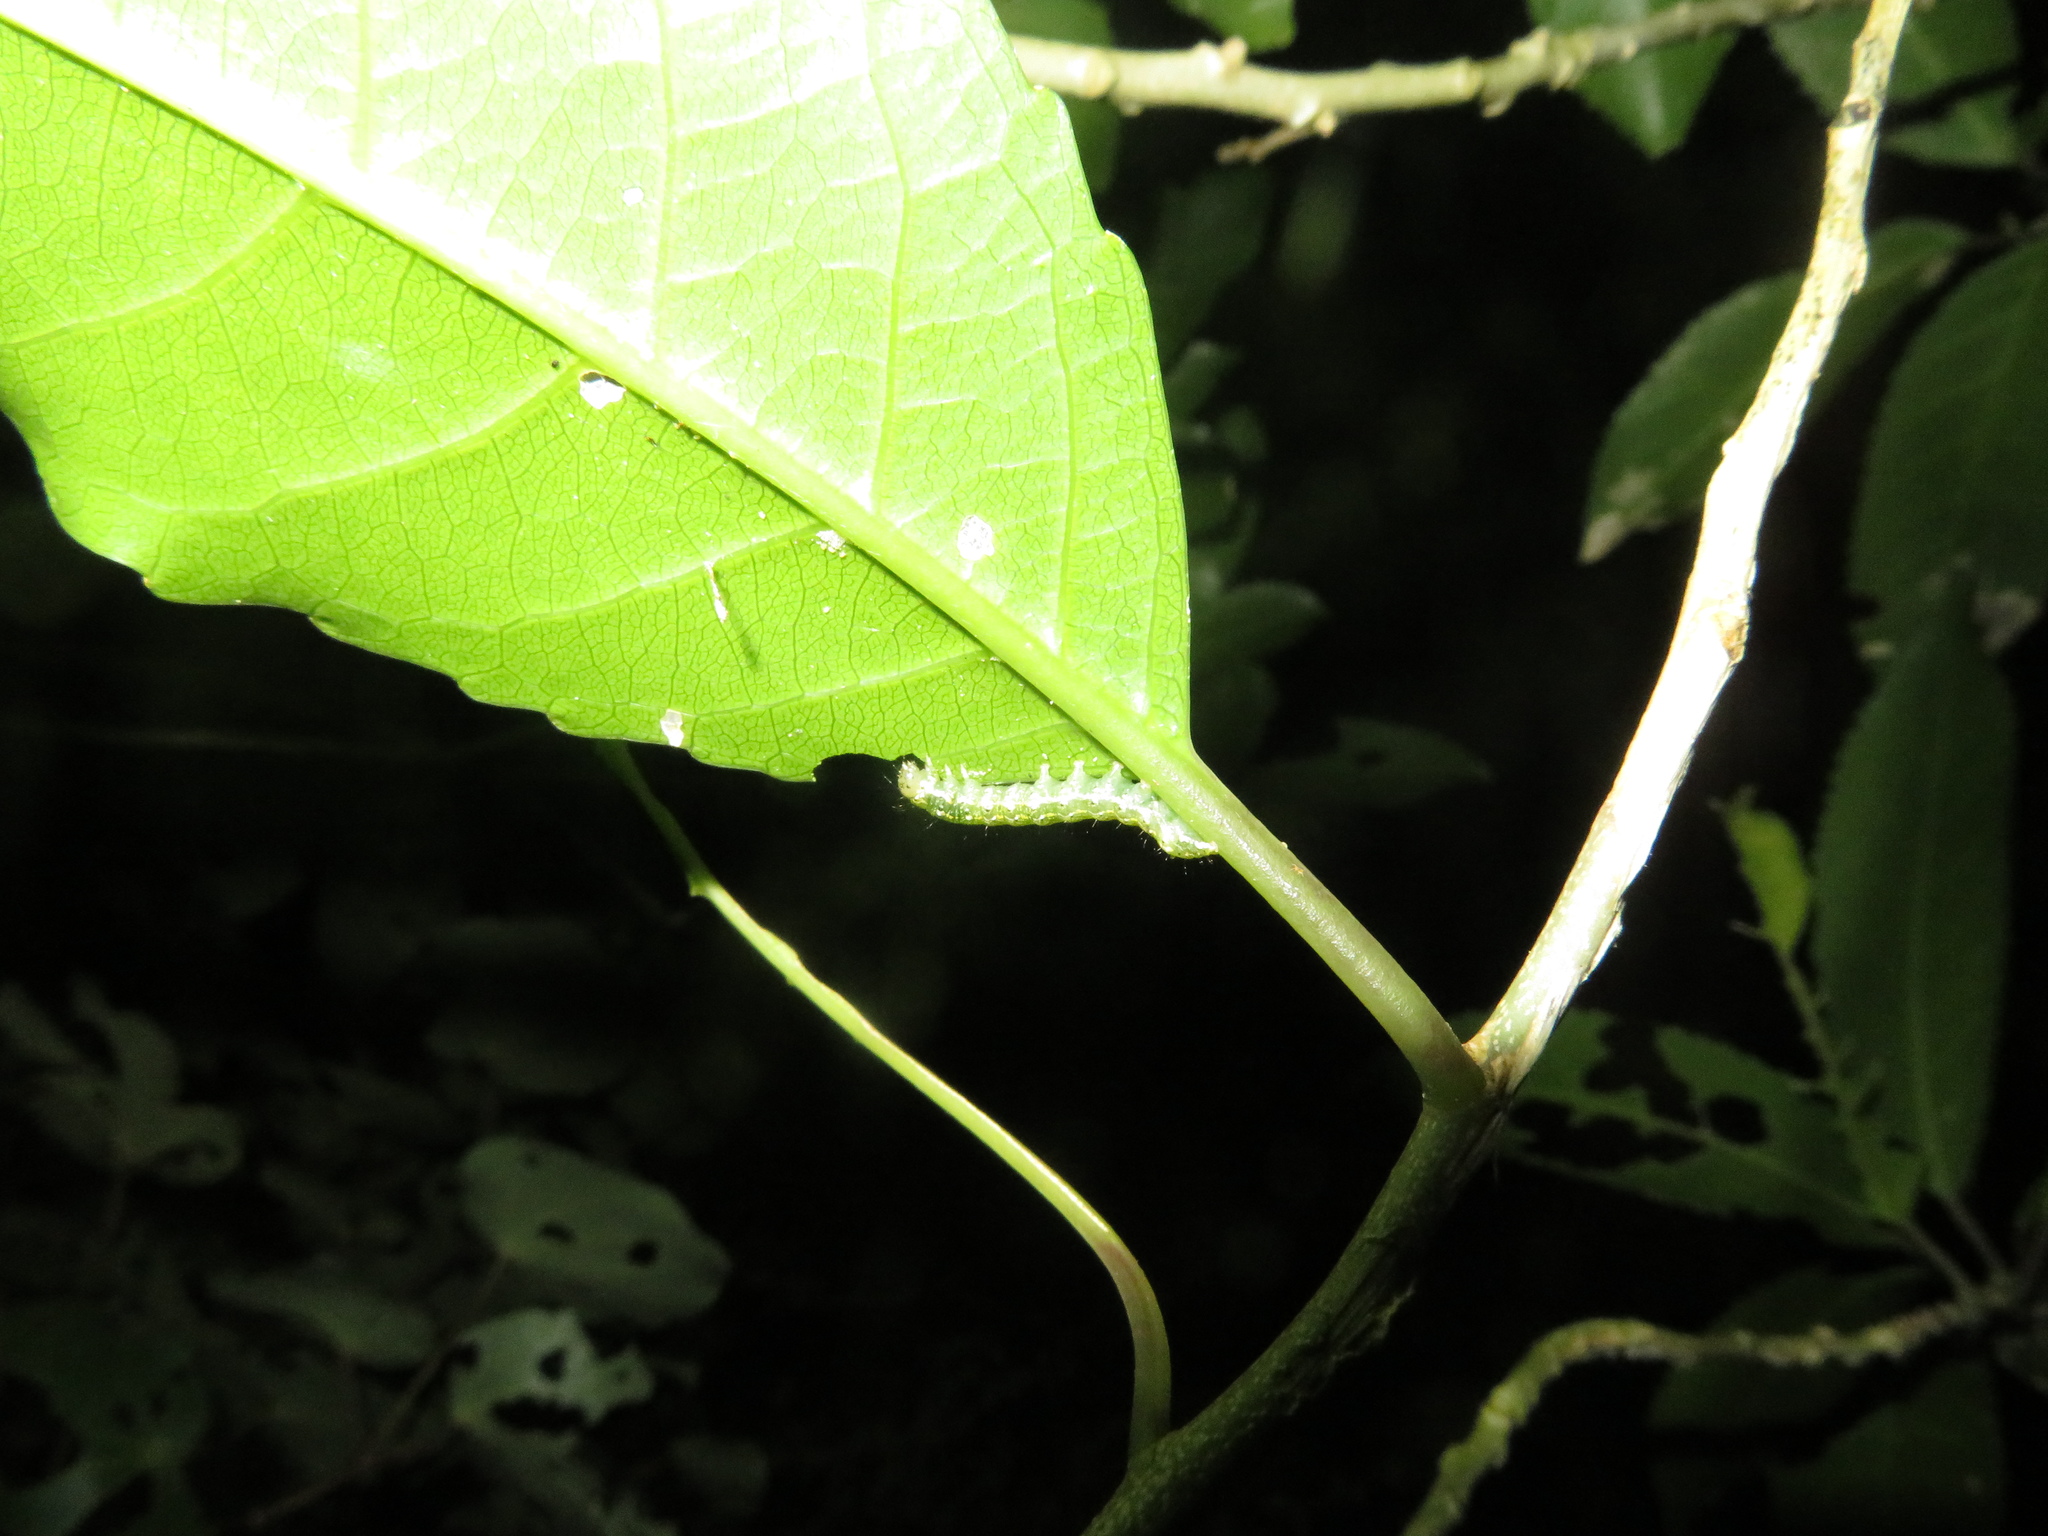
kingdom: Animalia
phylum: Arthropoda
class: Insecta
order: Lepidoptera
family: Noctuidae
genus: Feredayia
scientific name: Feredayia grammosa
